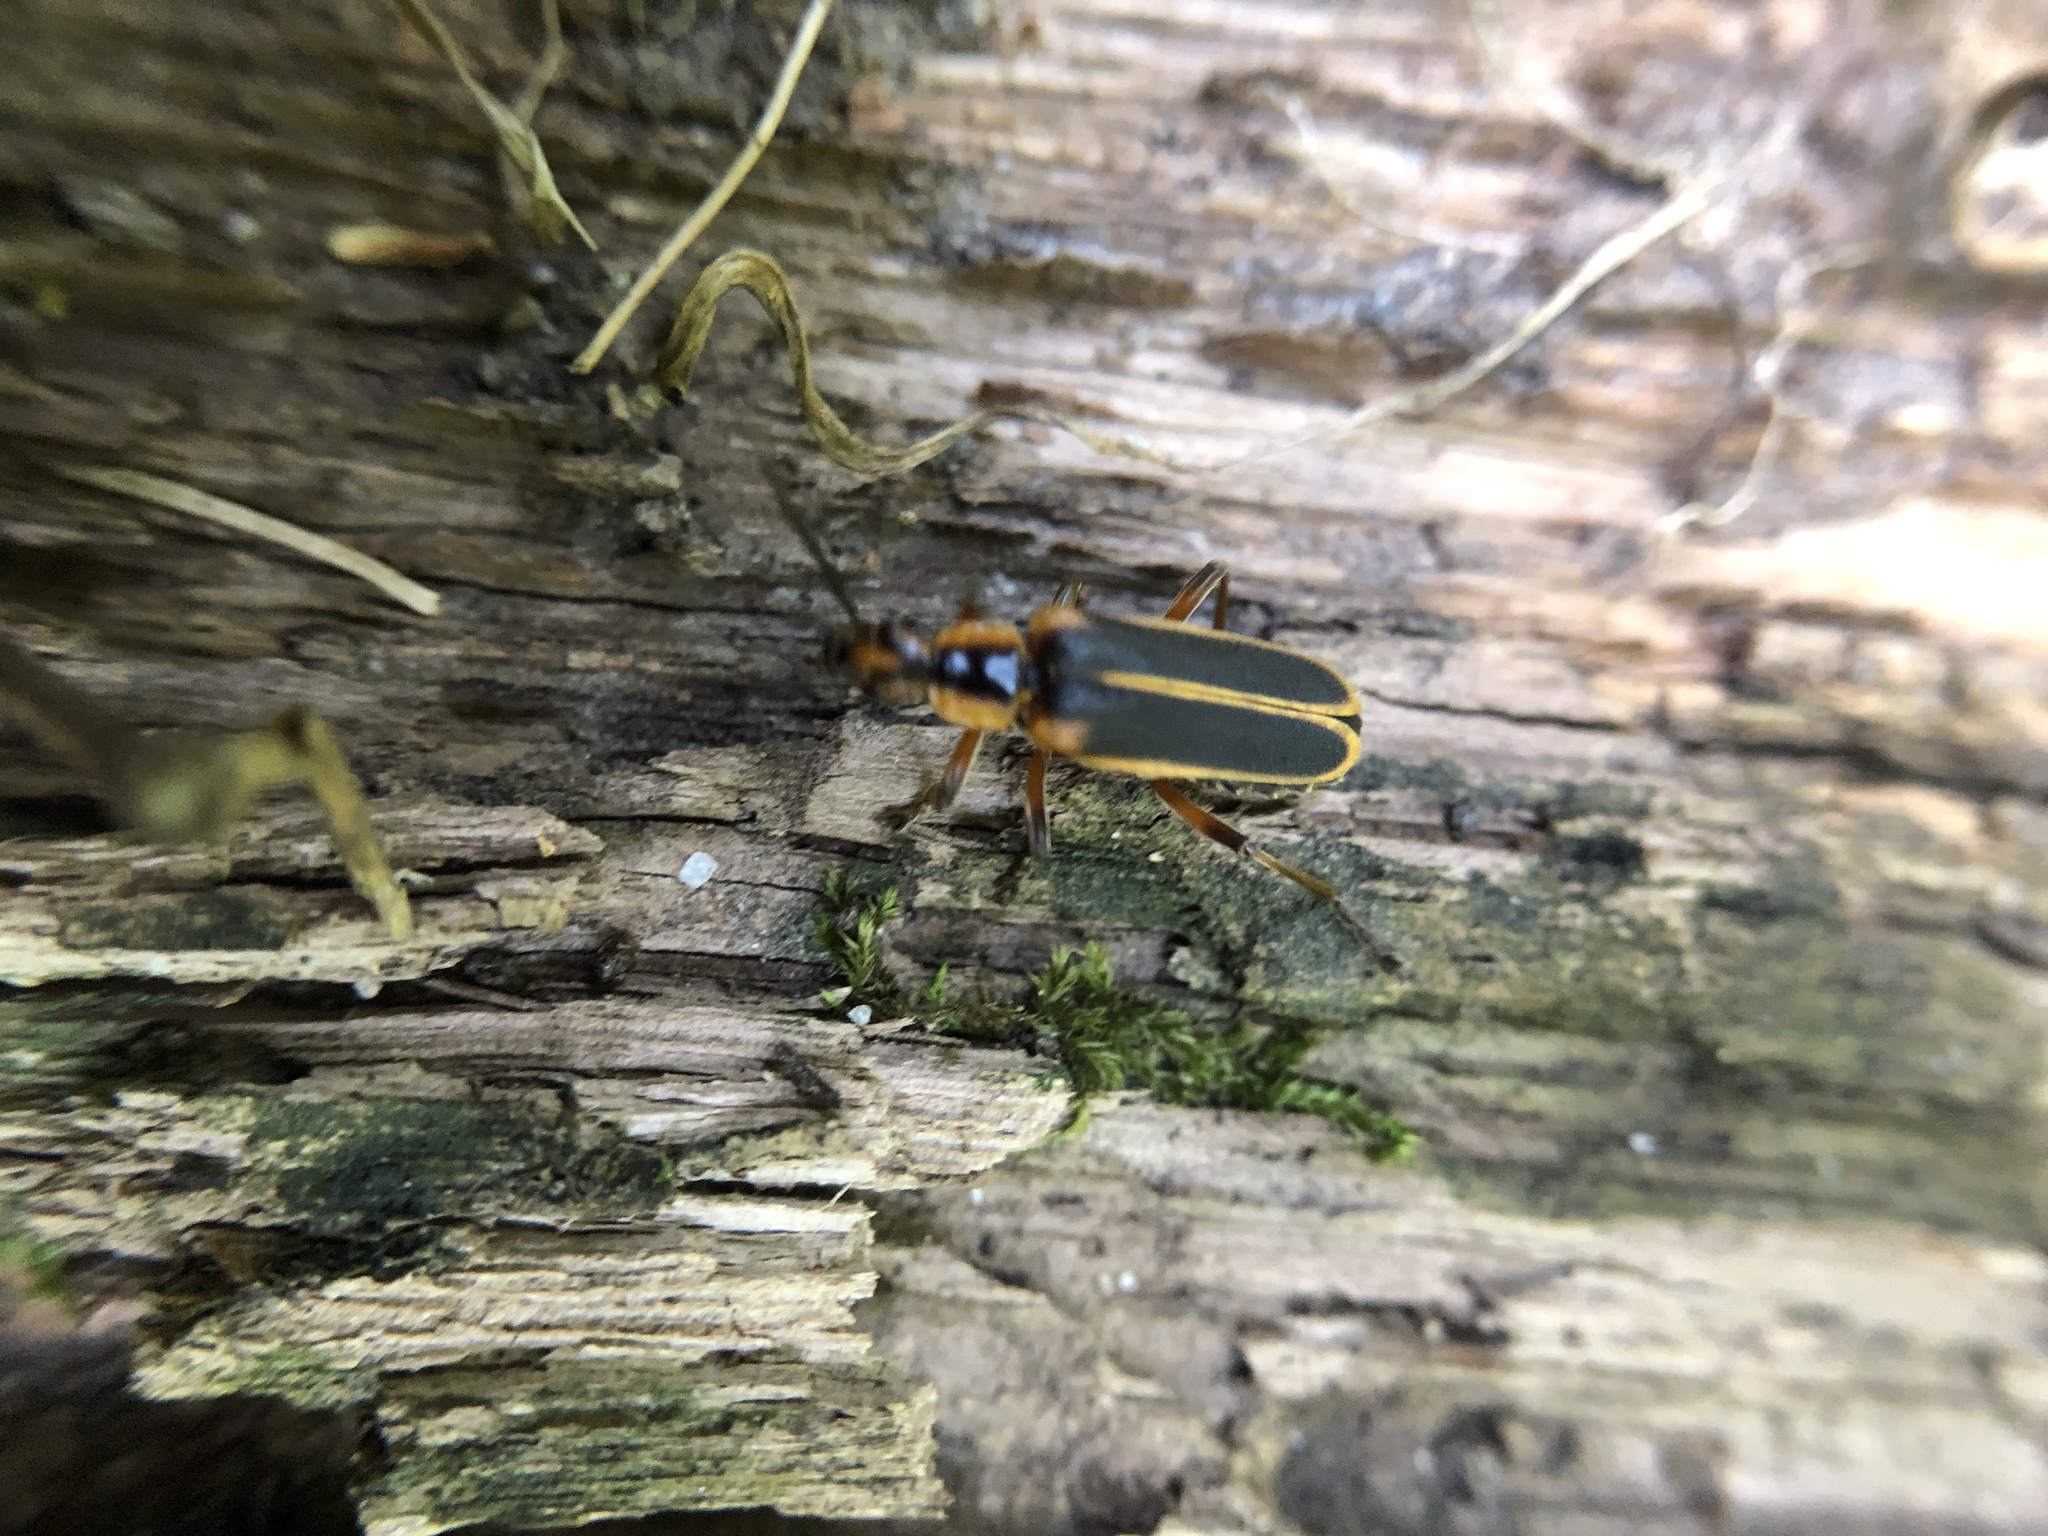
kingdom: Animalia
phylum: Arthropoda
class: Insecta
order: Coleoptera
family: Cantharidae
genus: Chauliognathus
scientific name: Chauliognathus marginatus
